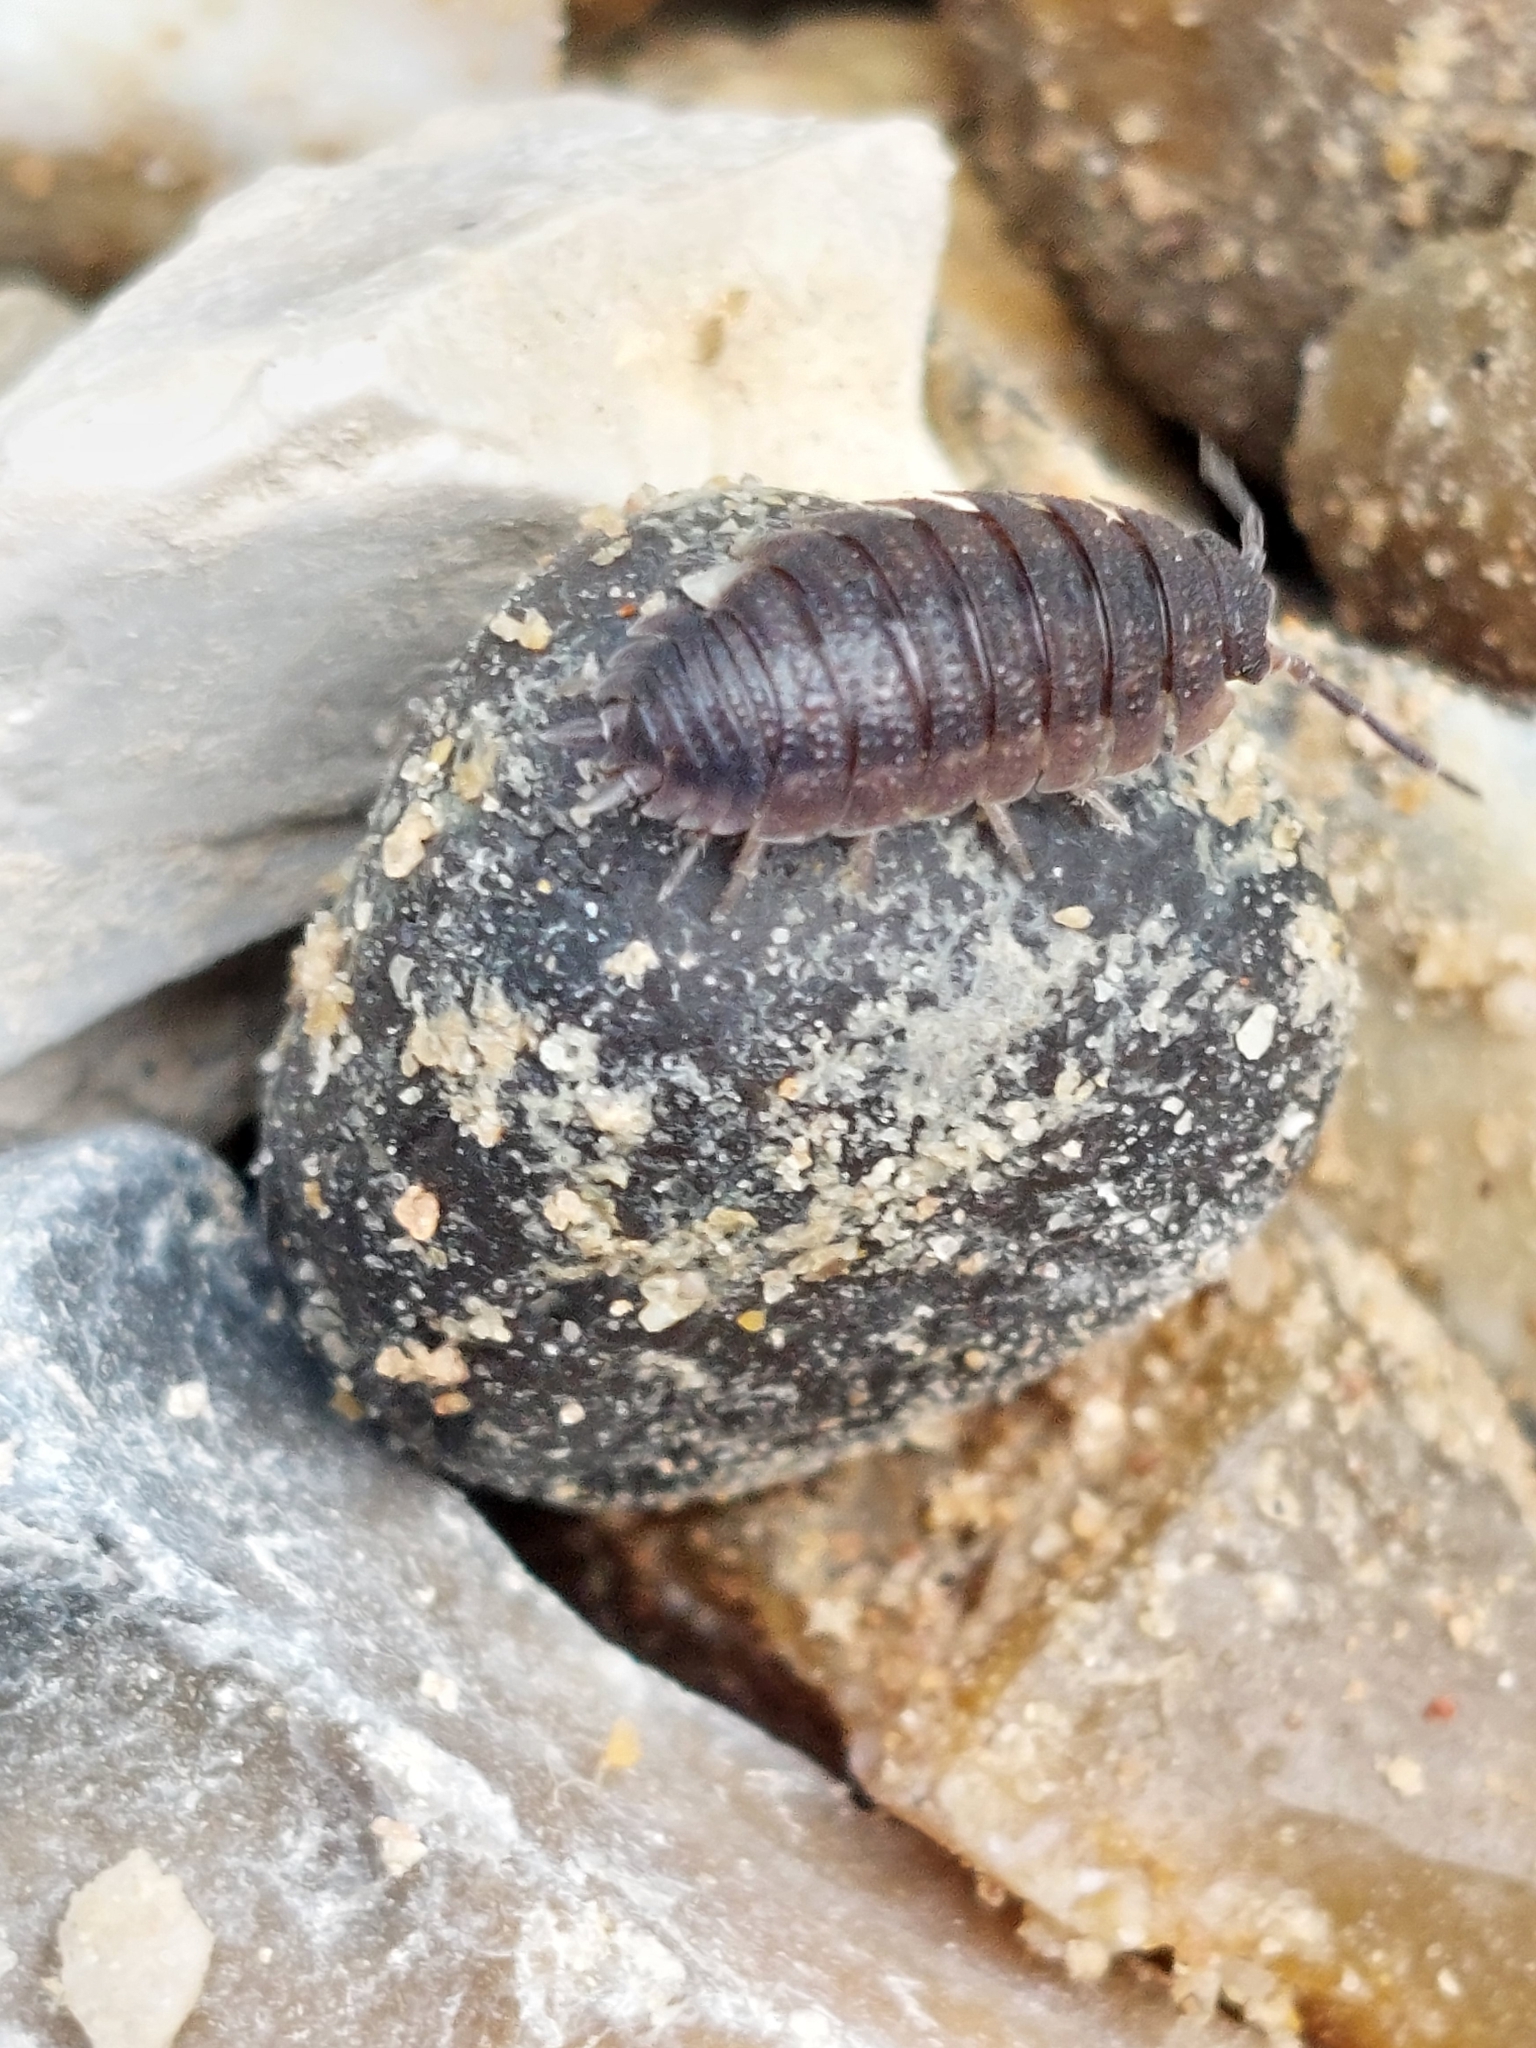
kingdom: Animalia
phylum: Arthropoda
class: Malacostraca
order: Isopoda
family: Porcellionidae
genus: Porcellio
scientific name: Porcellio scaber
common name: Common rough woodlouse
